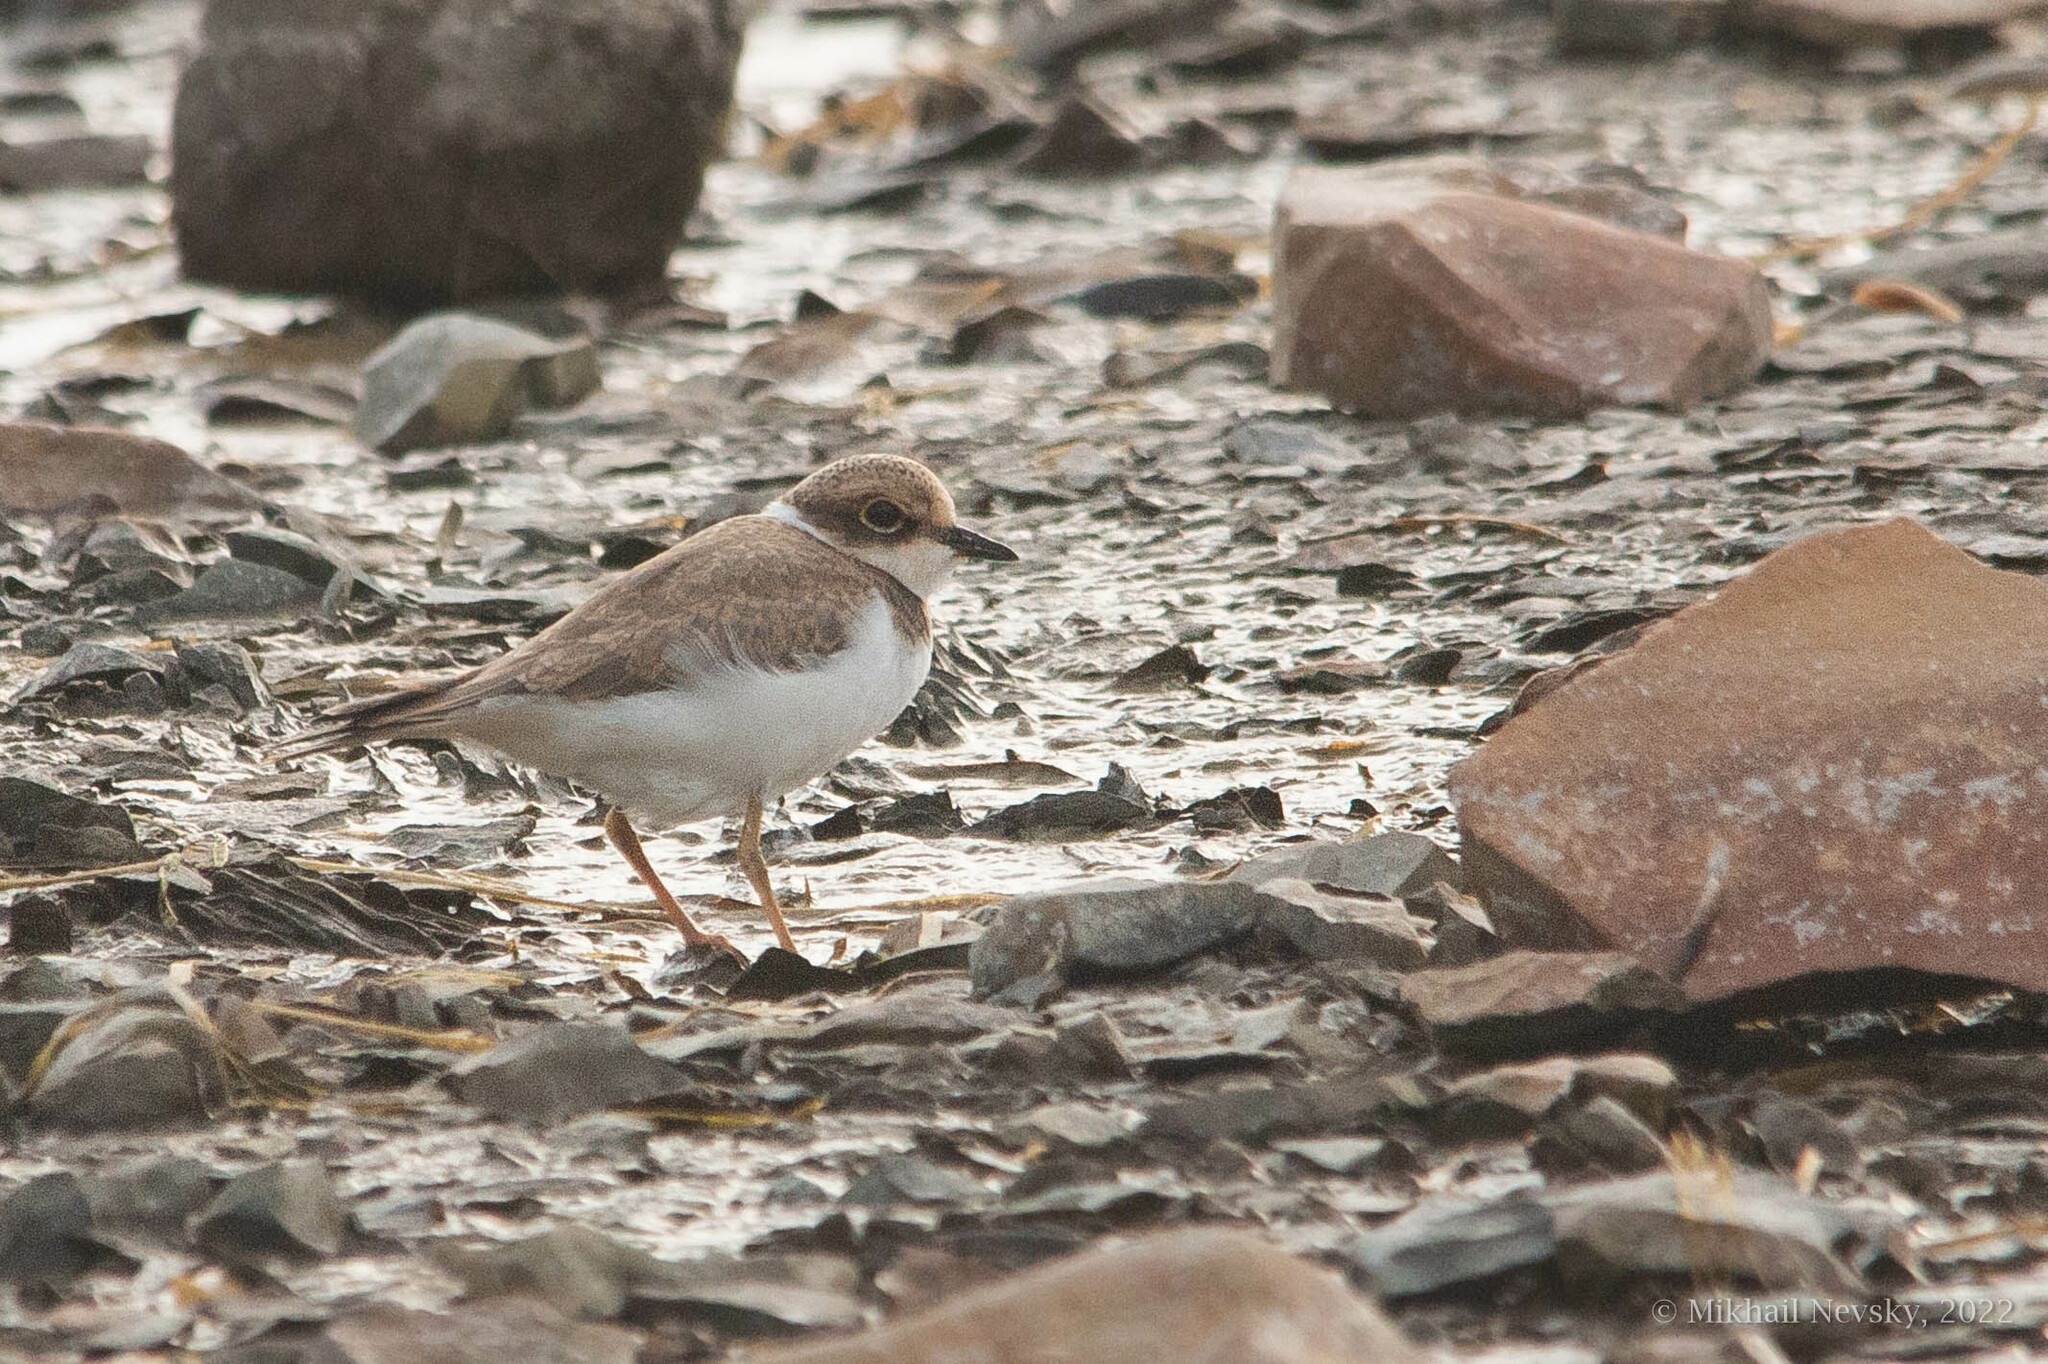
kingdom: Animalia
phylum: Chordata
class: Aves
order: Charadriiformes
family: Charadriidae
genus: Charadrius
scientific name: Charadrius dubius
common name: Little ringed plover
